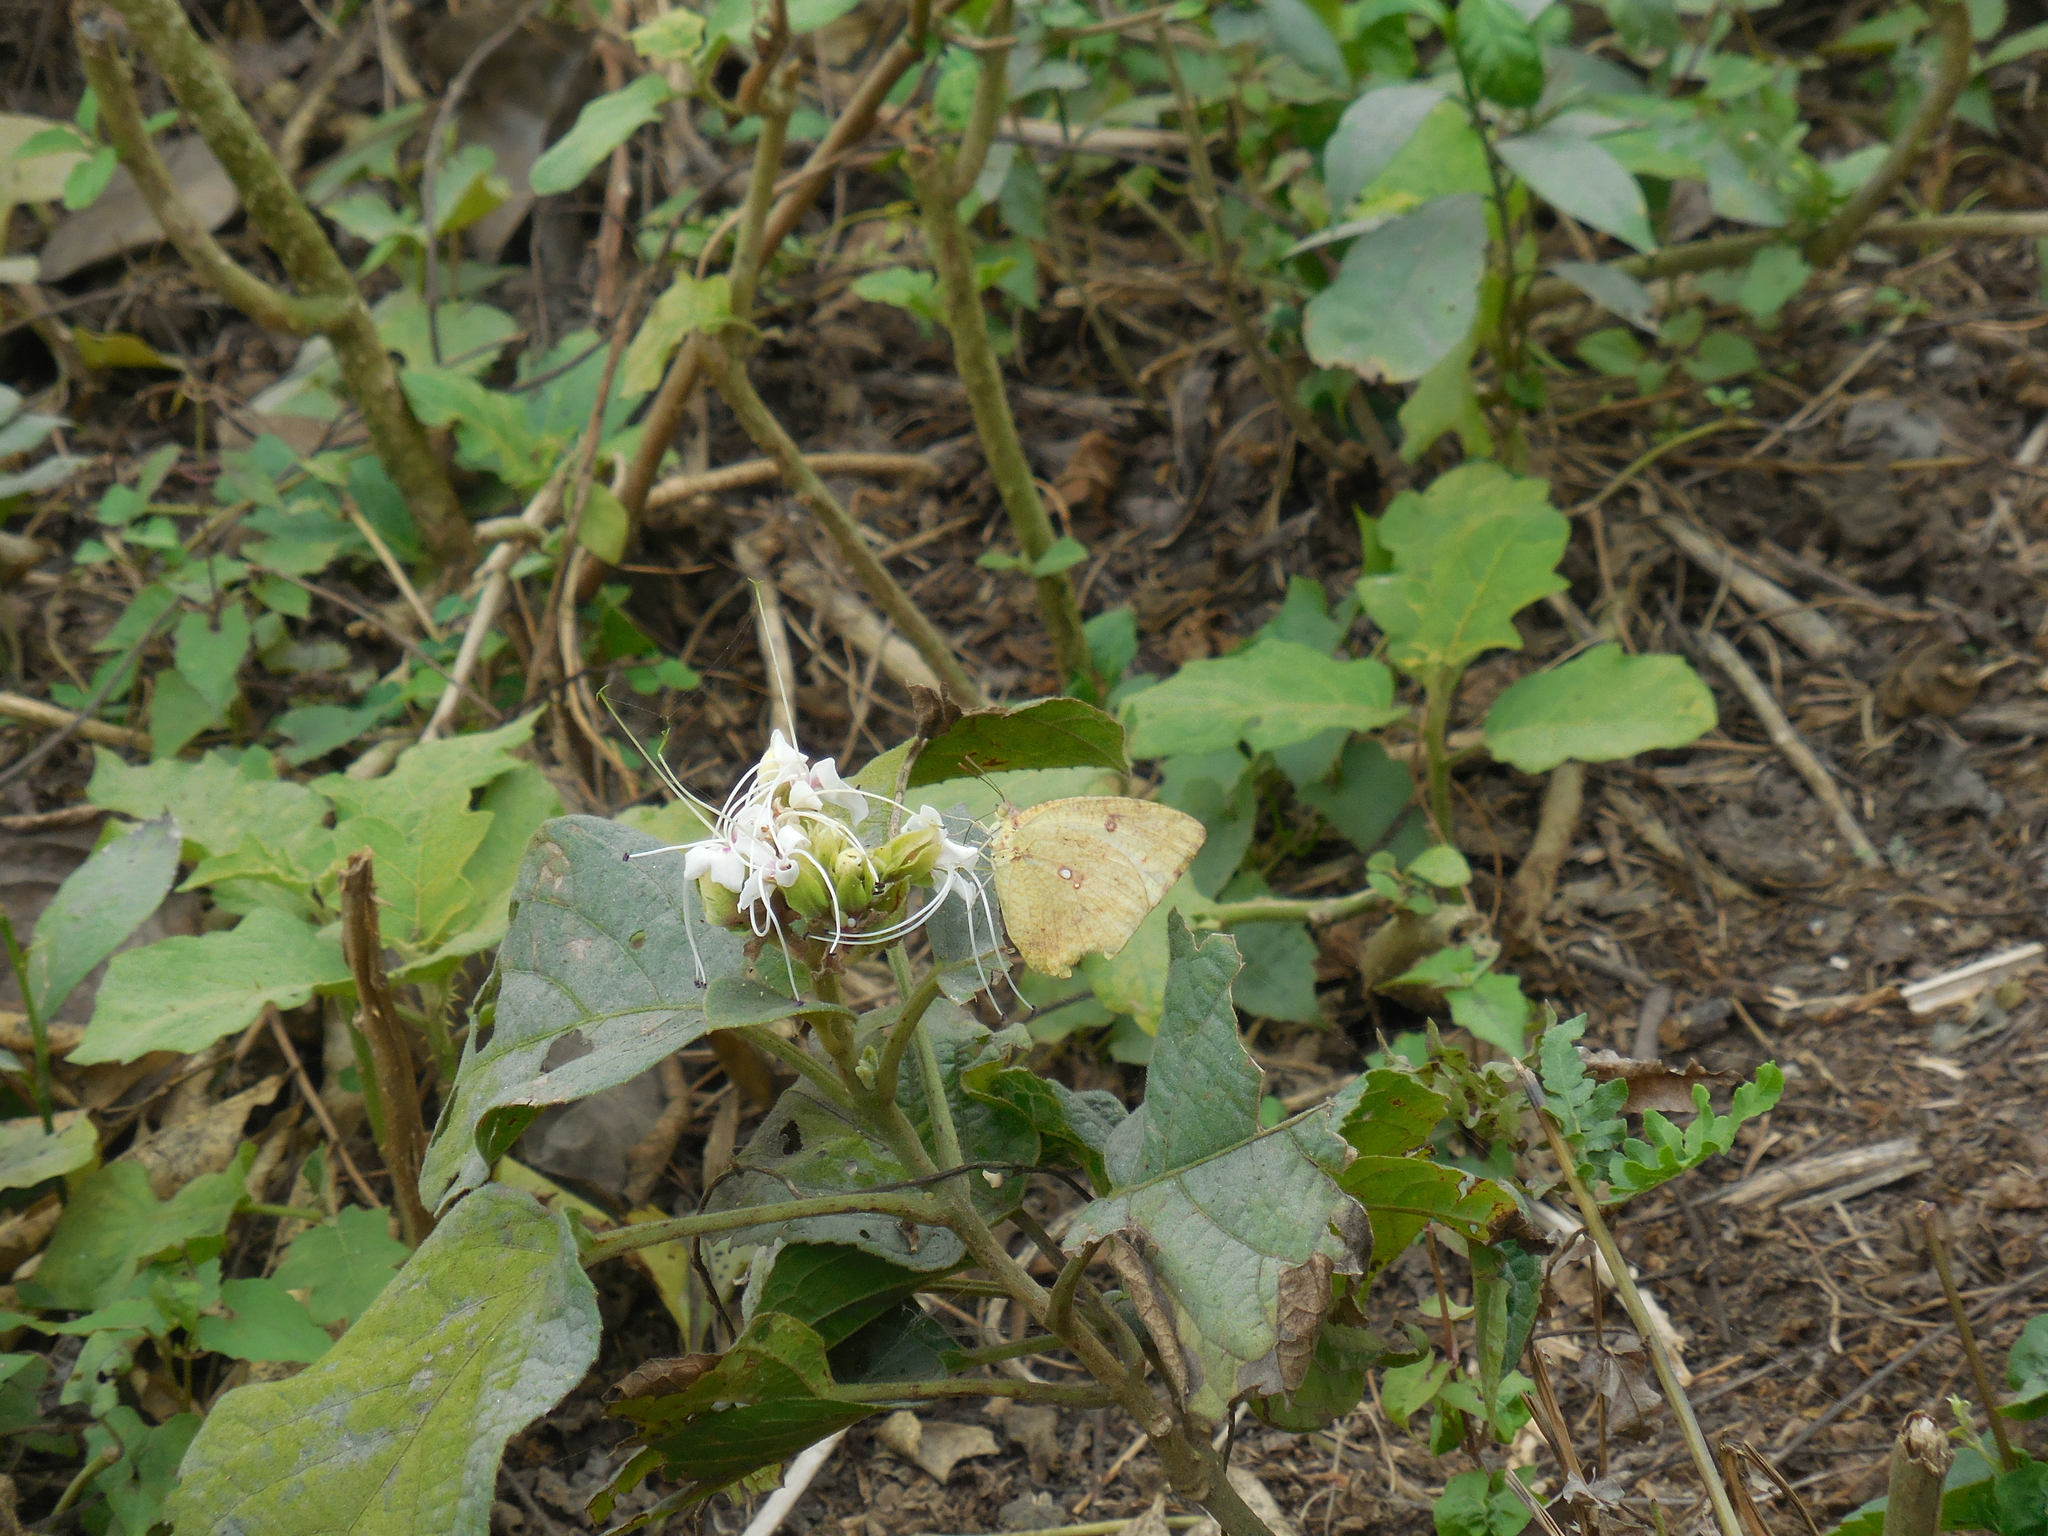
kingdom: Animalia
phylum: Arthropoda
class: Insecta
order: Lepidoptera
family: Pieridae
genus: Catopsilia
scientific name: Catopsilia pomona
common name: Common emigrant
